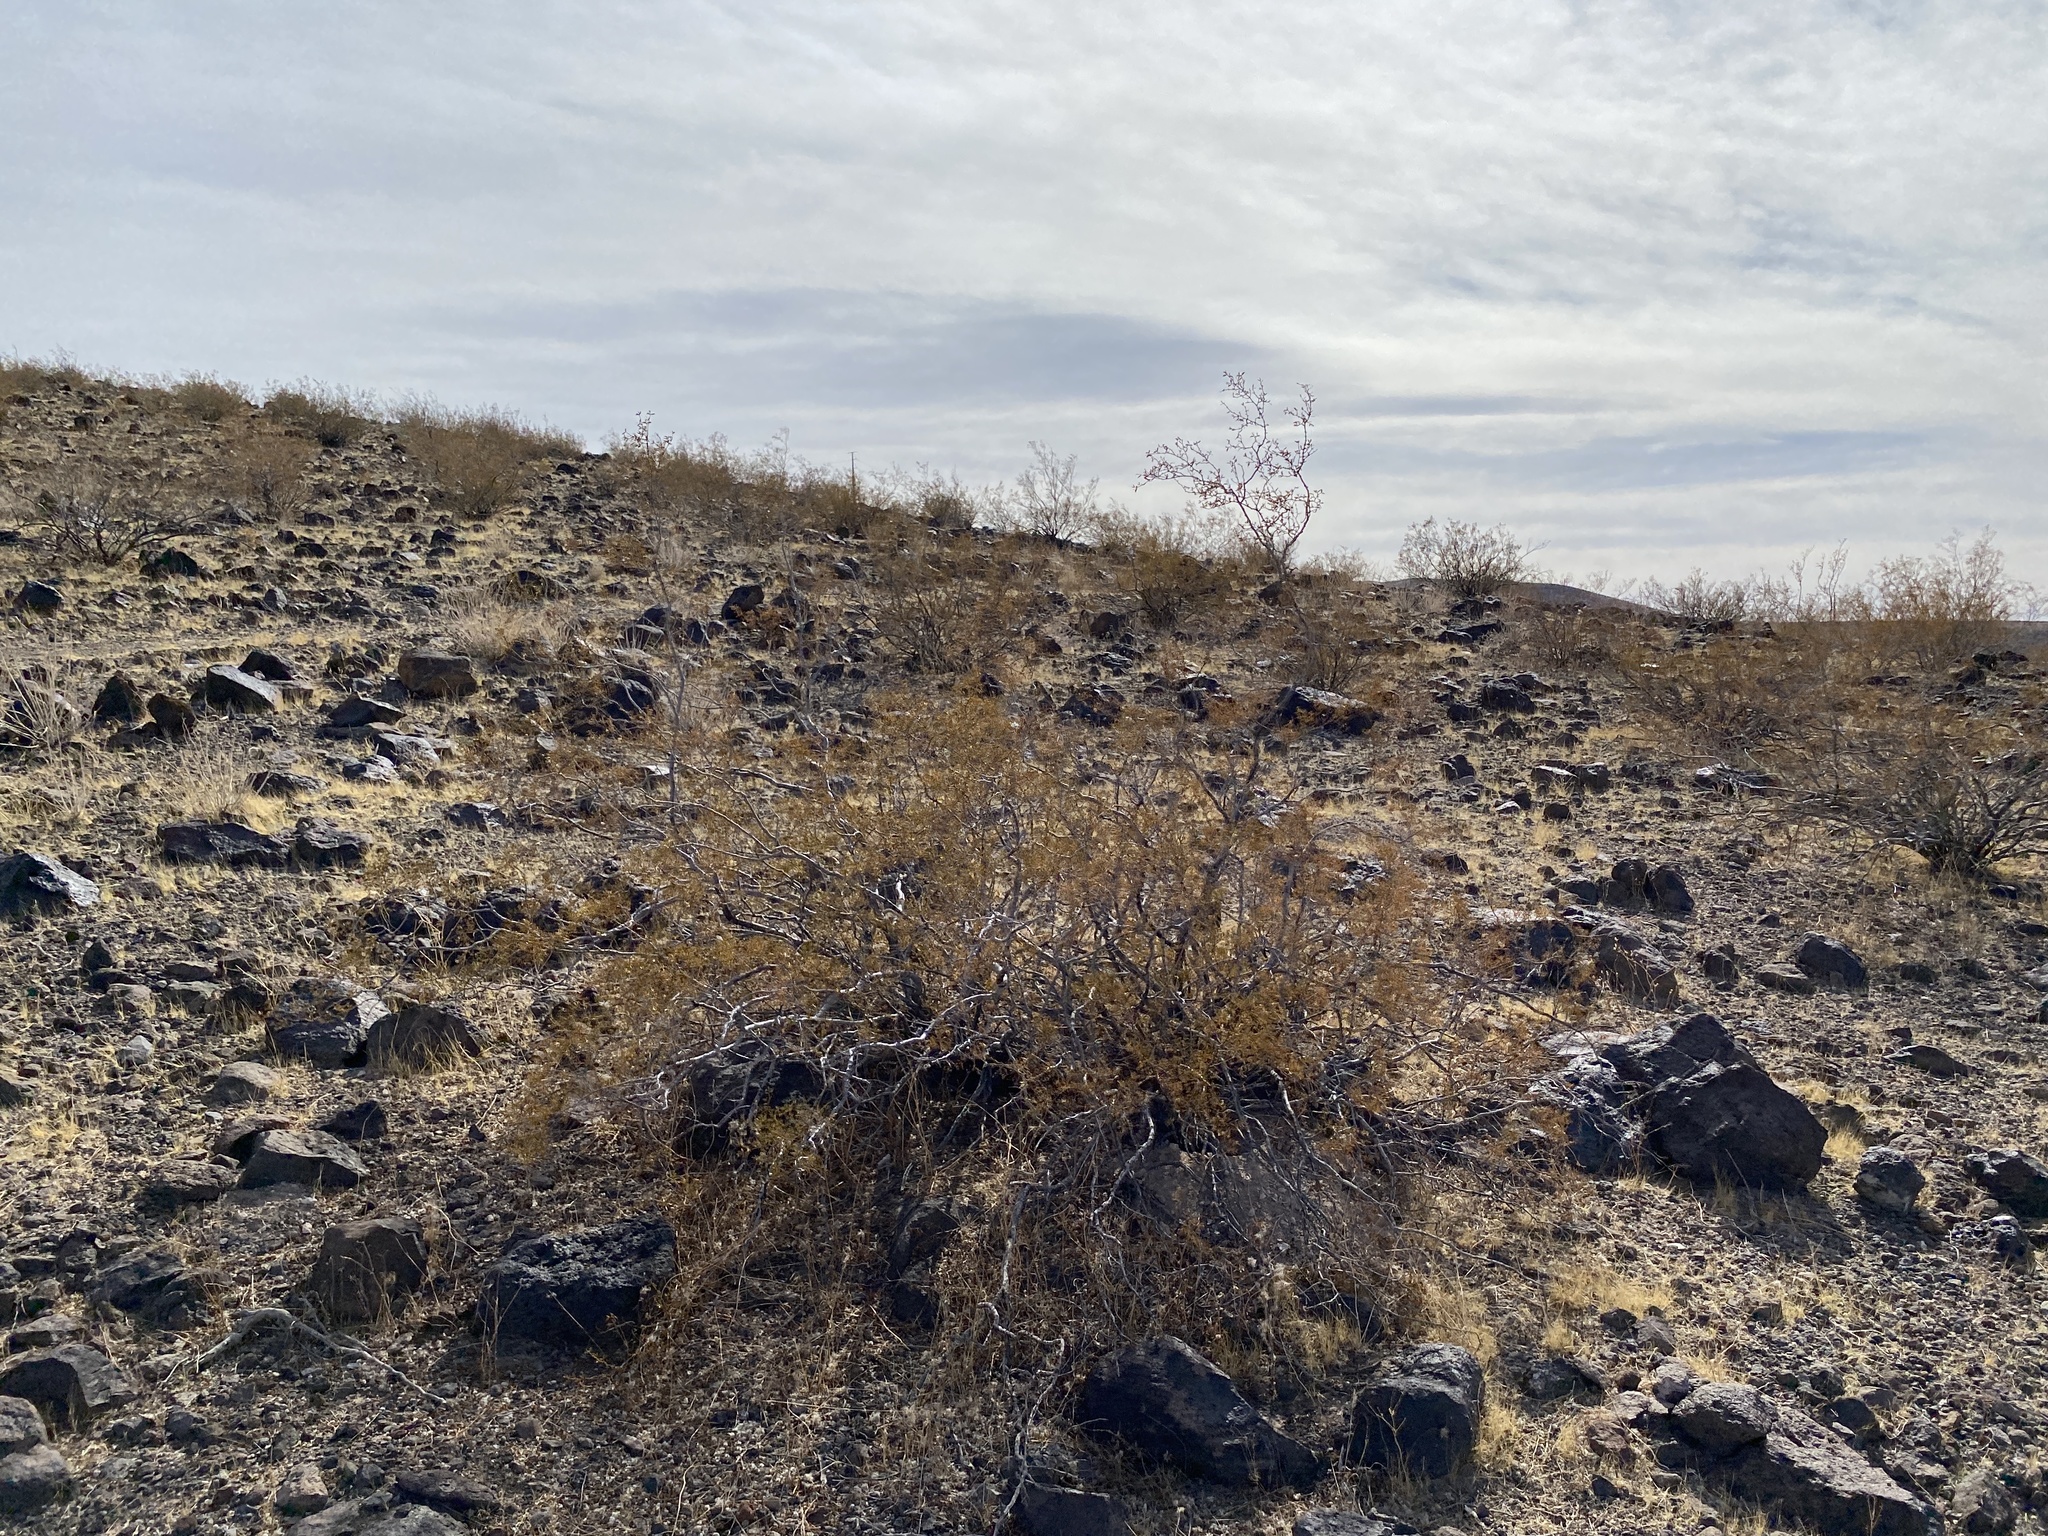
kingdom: Plantae
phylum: Tracheophyta
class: Magnoliopsida
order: Zygophyllales
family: Zygophyllaceae
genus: Larrea
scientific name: Larrea tridentata
